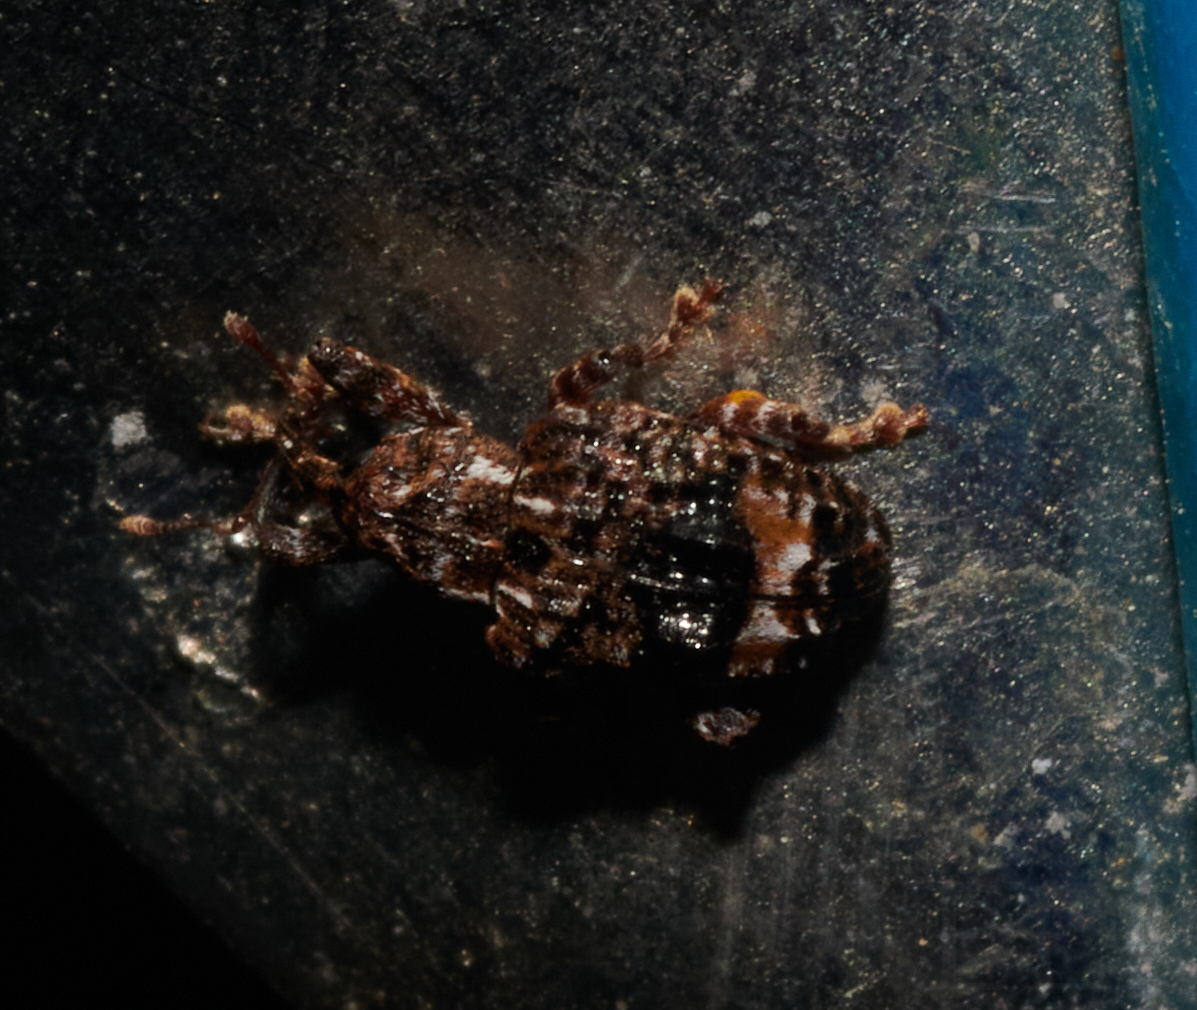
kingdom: Animalia
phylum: Arthropoda
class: Insecta
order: Coleoptera
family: Curculionidae
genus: Conotrachelus
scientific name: Conotrachelus nenuphar
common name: Plum curculio
